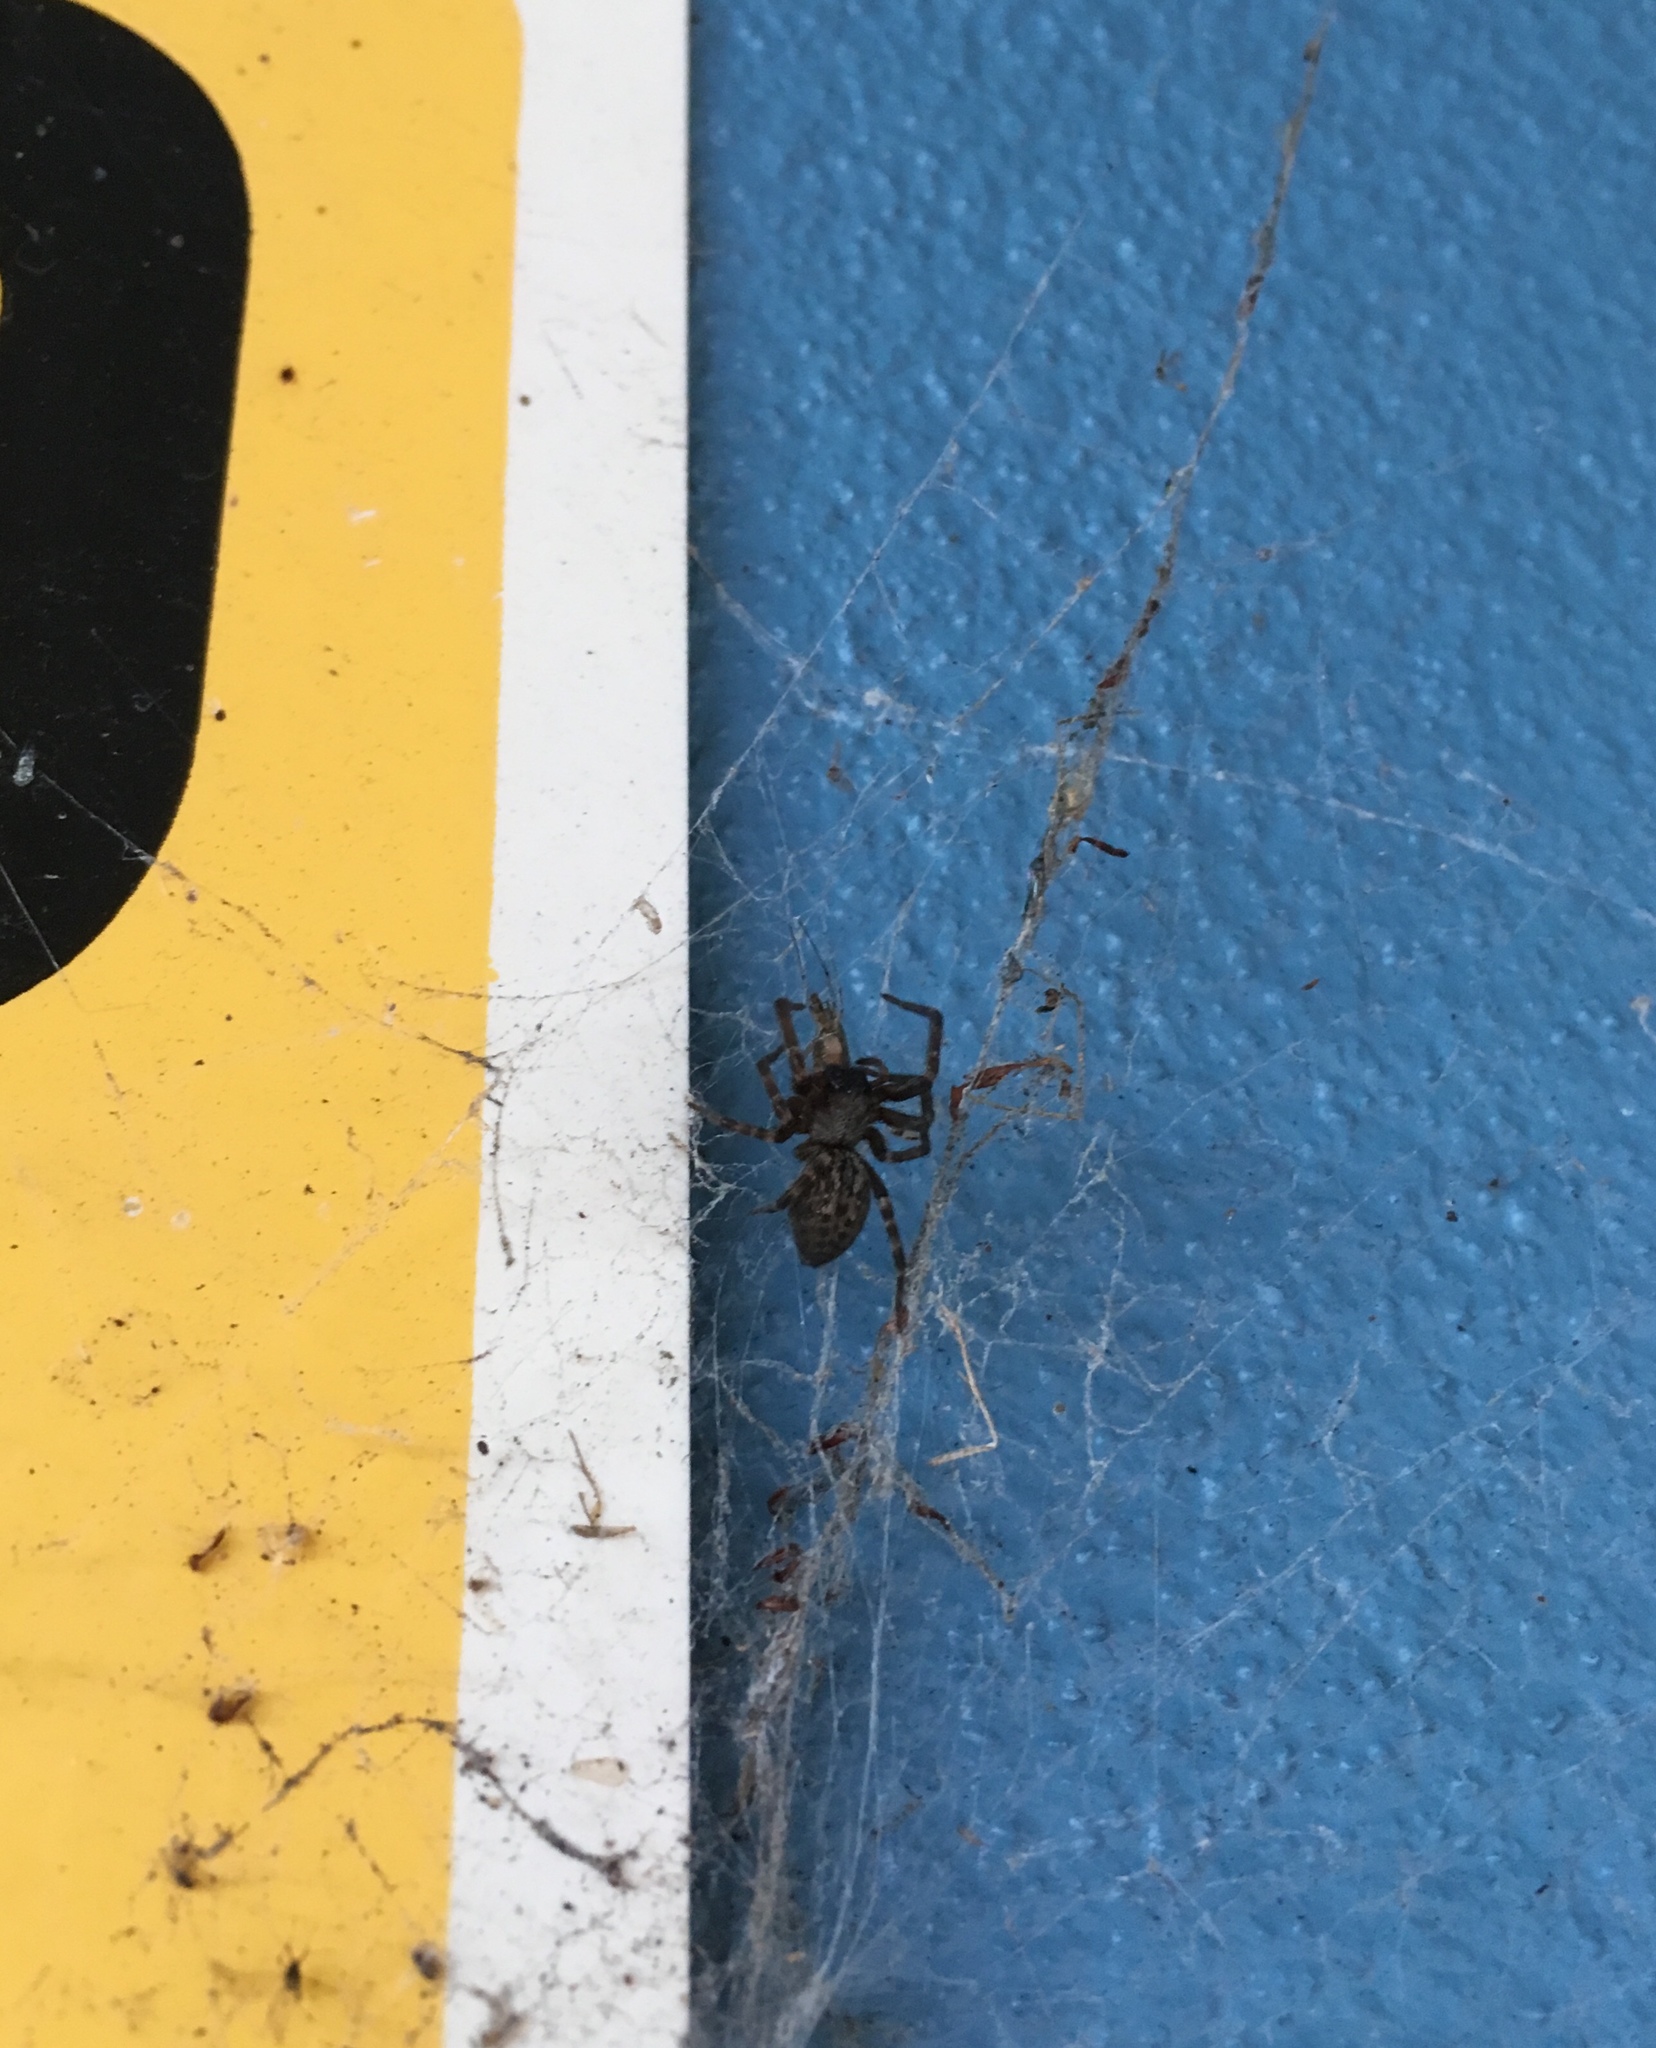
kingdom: Animalia
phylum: Arthropoda
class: Arachnida
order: Araneae
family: Desidae
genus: Badumna
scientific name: Badumna insignis
